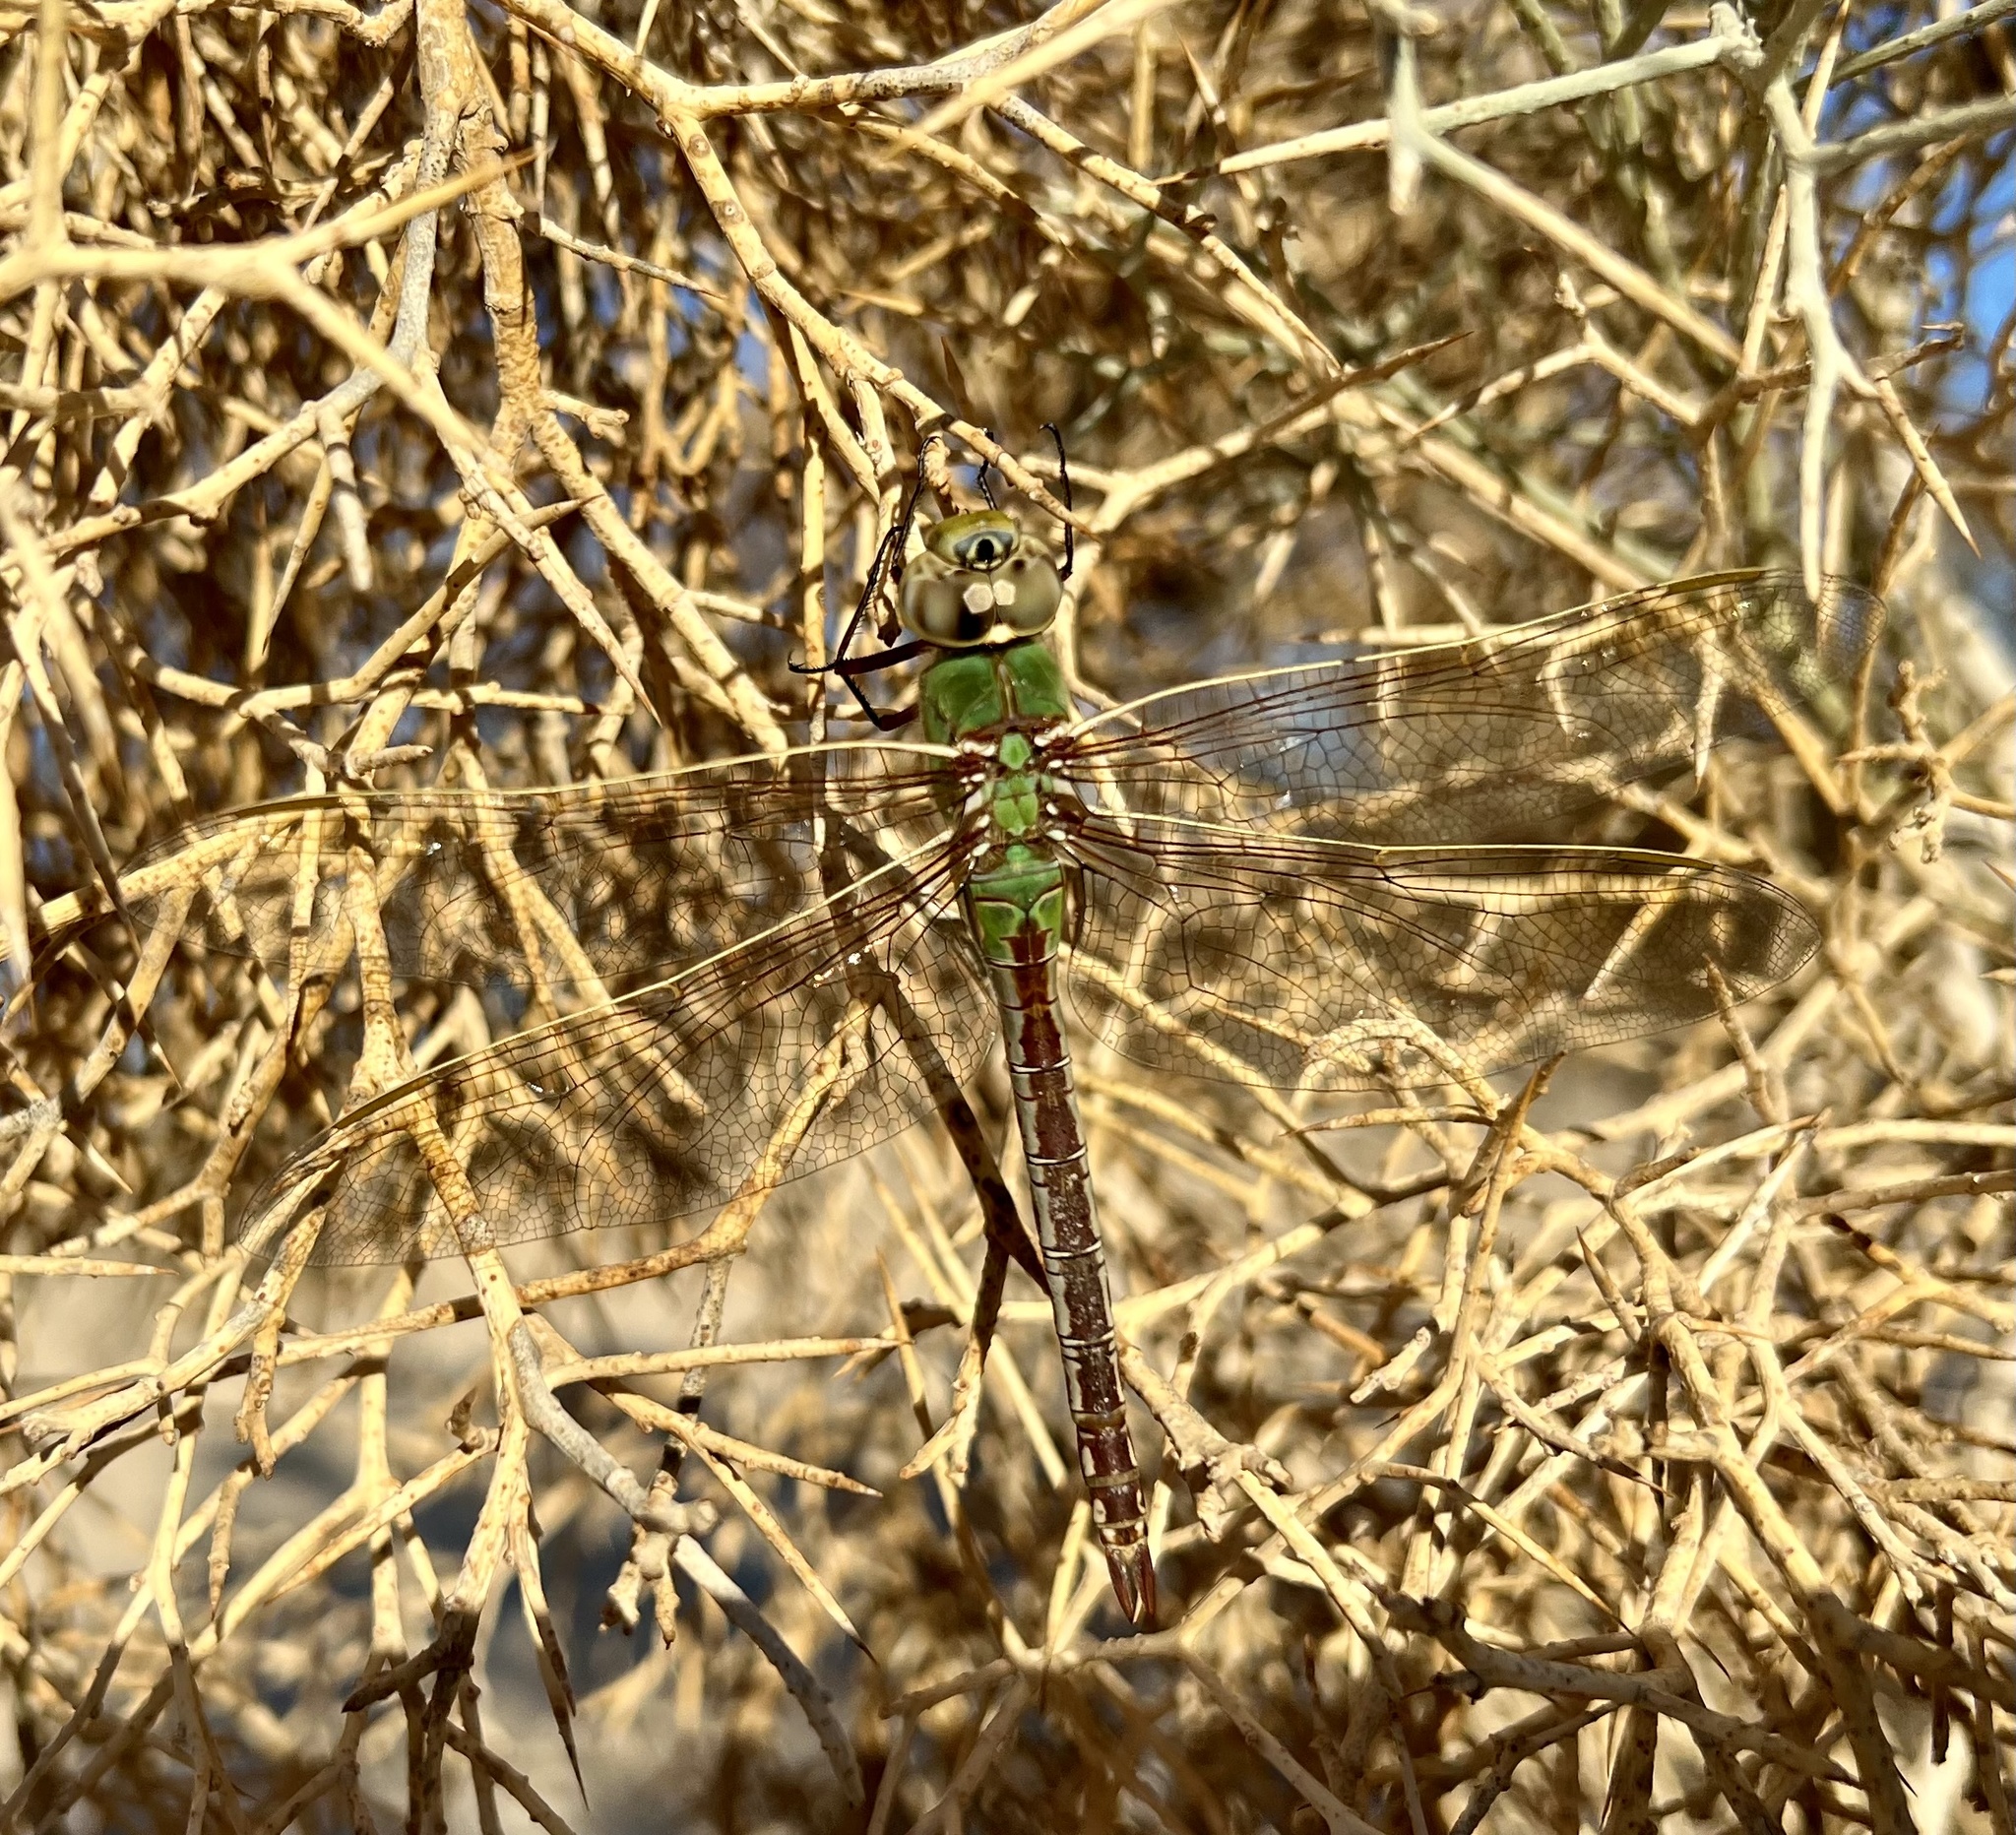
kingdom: Animalia
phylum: Arthropoda
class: Insecta
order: Odonata
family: Aeshnidae
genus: Anax
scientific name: Anax junius
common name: Common green darner
